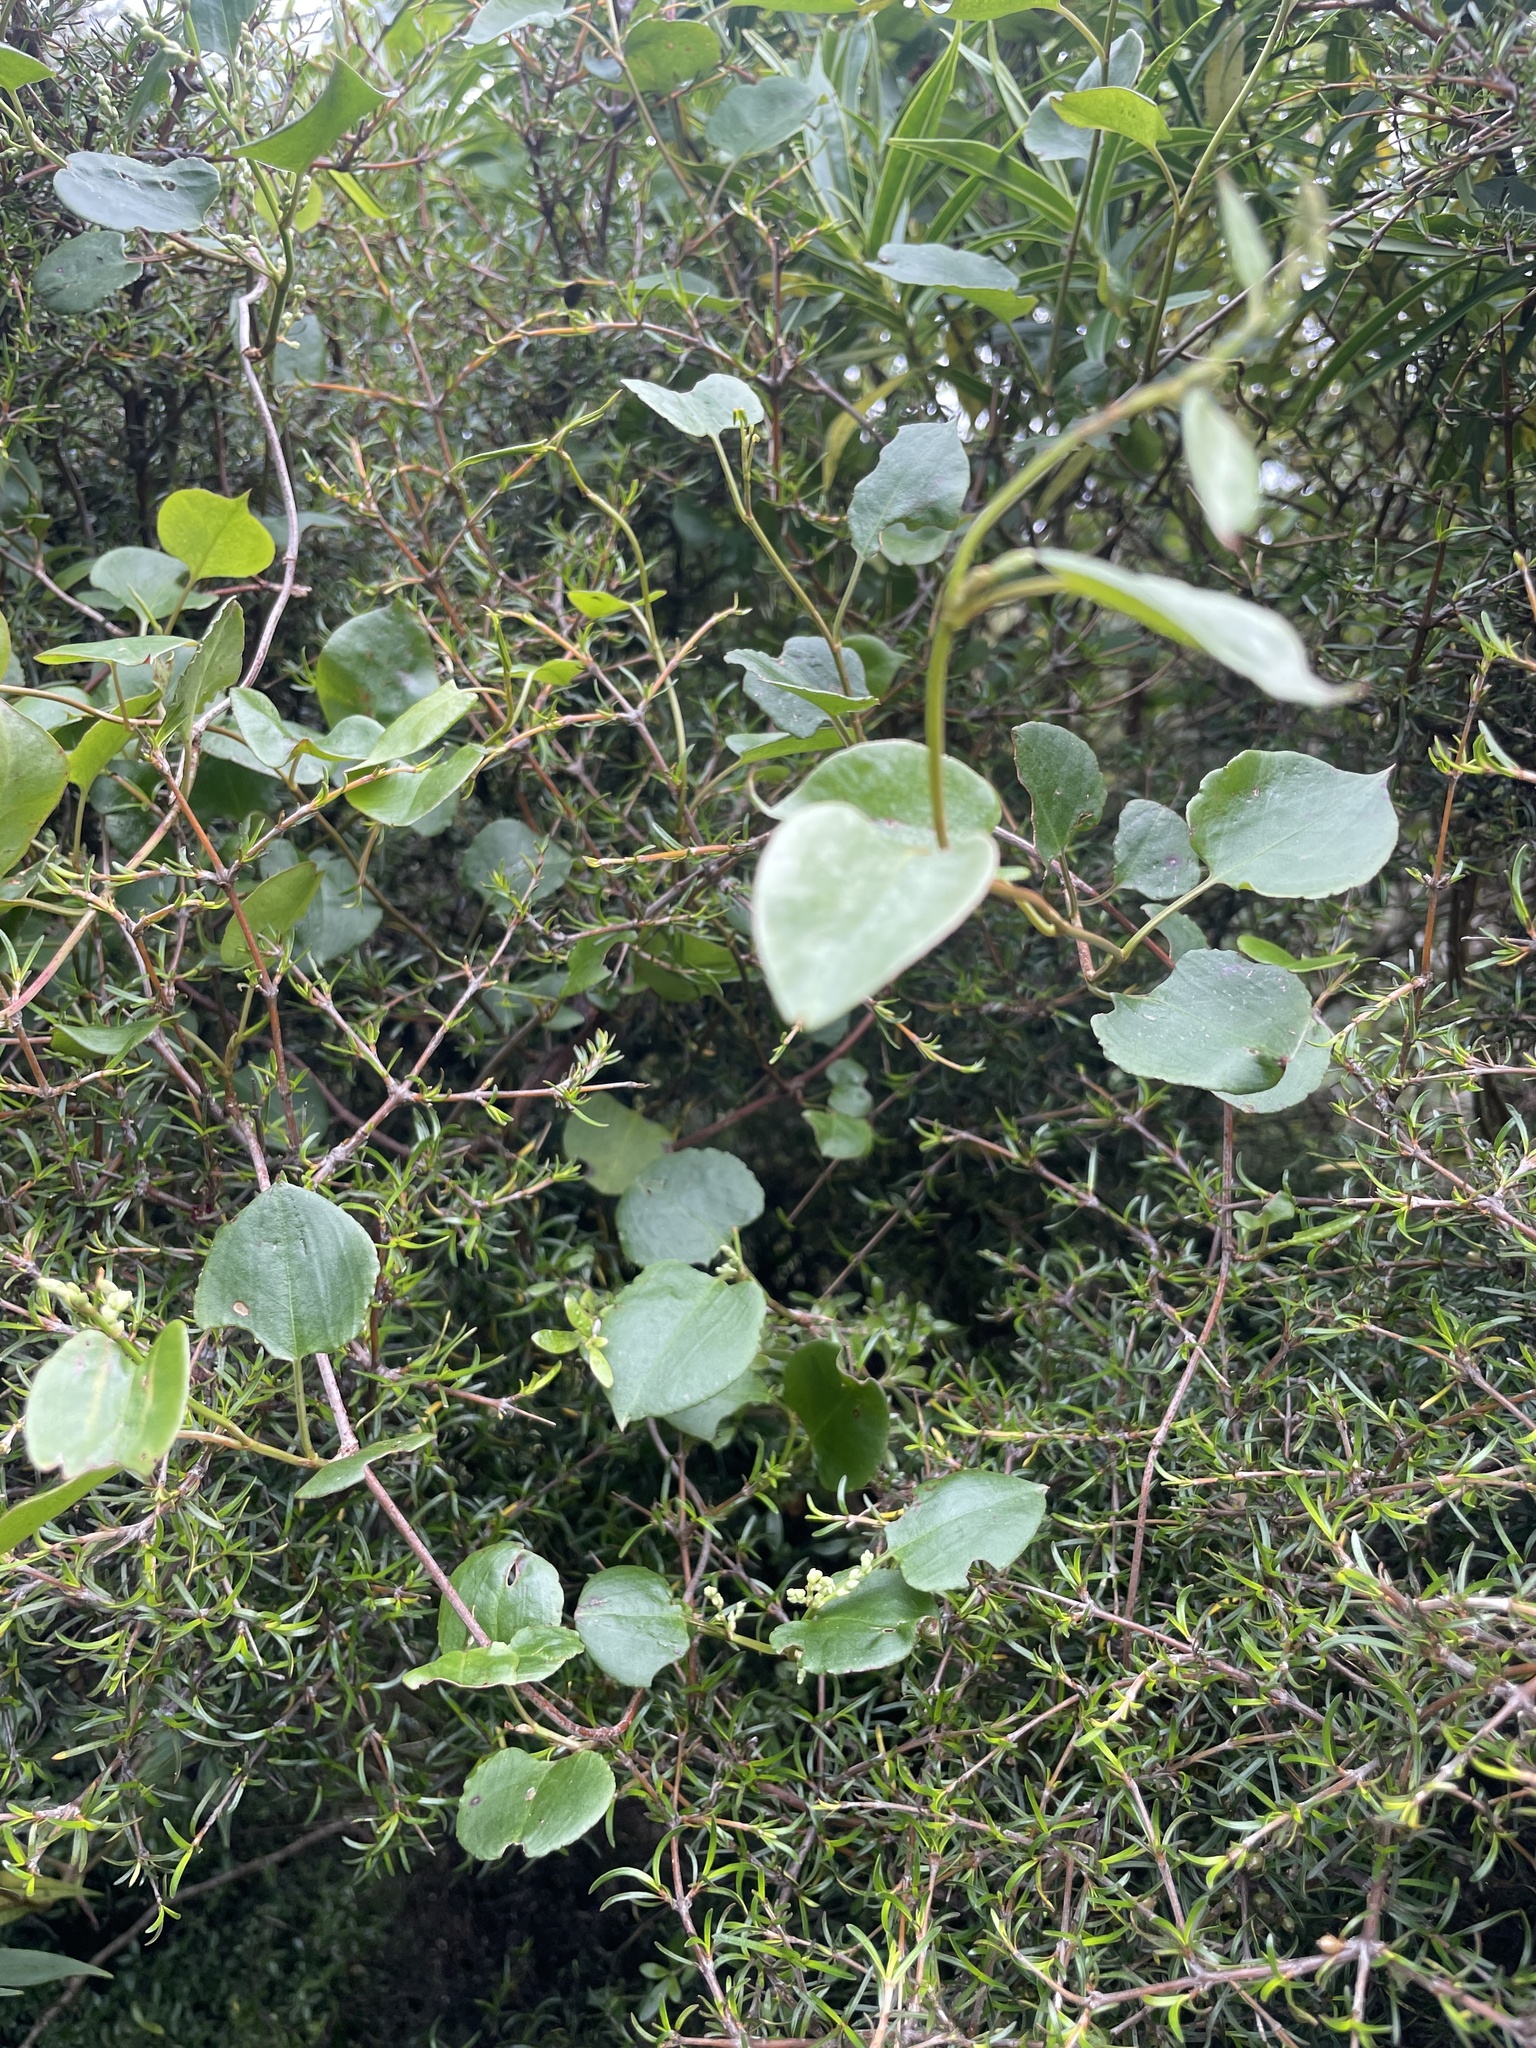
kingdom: Plantae
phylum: Tracheophyta
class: Magnoliopsida
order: Caryophyllales
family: Polygonaceae
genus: Muehlenbeckia
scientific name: Muehlenbeckia australis
